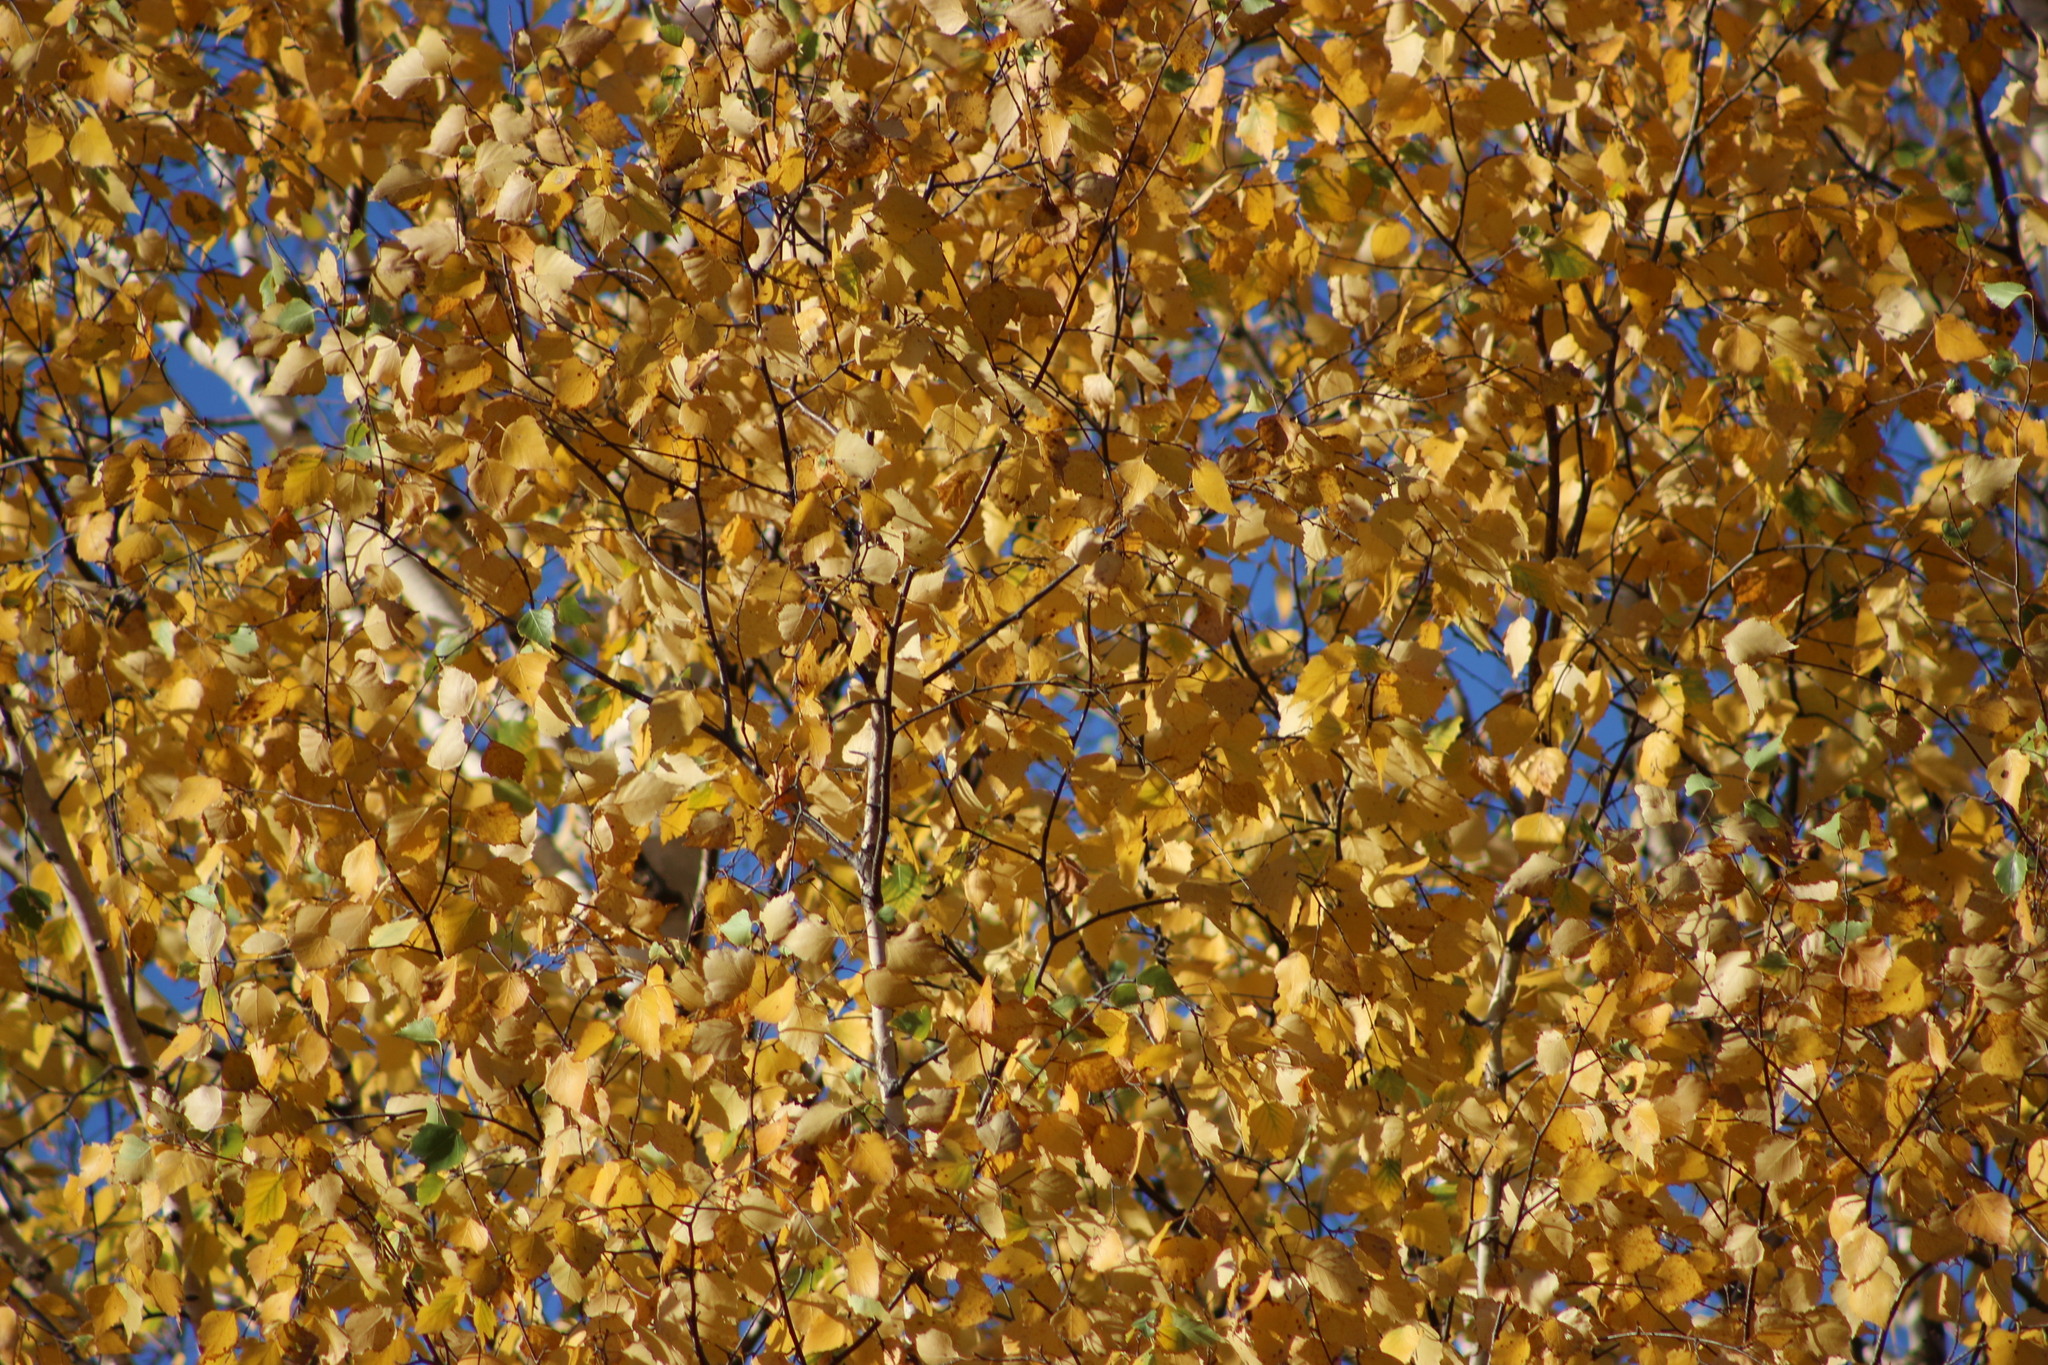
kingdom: Plantae
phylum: Tracheophyta
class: Magnoliopsida
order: Fagales
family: Betulaceae
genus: Betula
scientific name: Betula pubescens
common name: Downy birch
